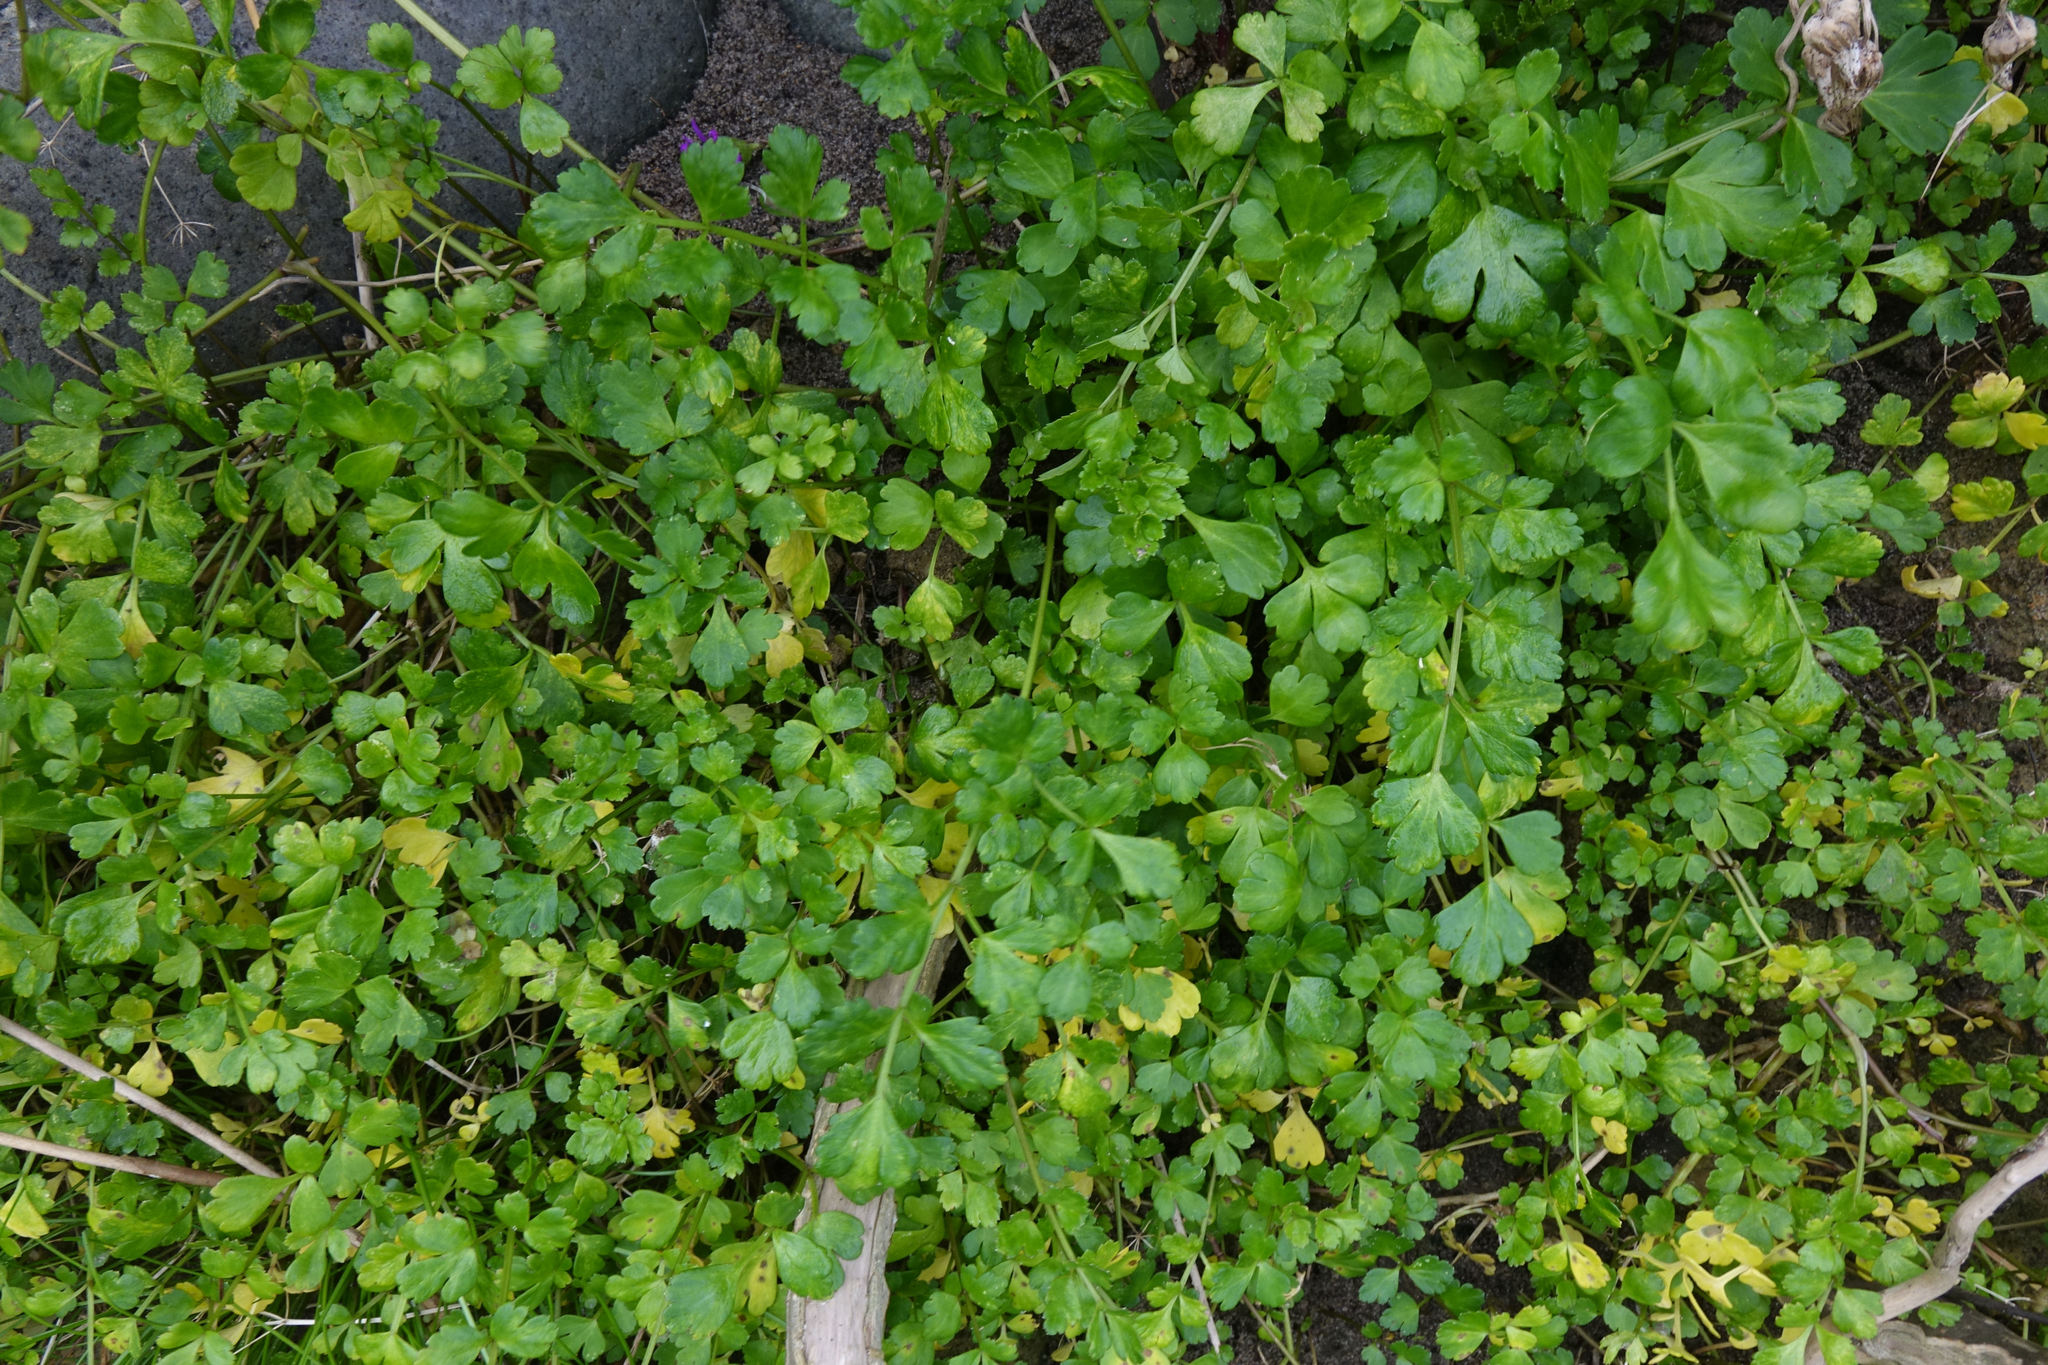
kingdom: Plantae
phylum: Tracheophyta
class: Magnoliopsida
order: Apiales
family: Apiaceae
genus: Apium
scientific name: Apium prostratum
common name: Prostrate marshwort
